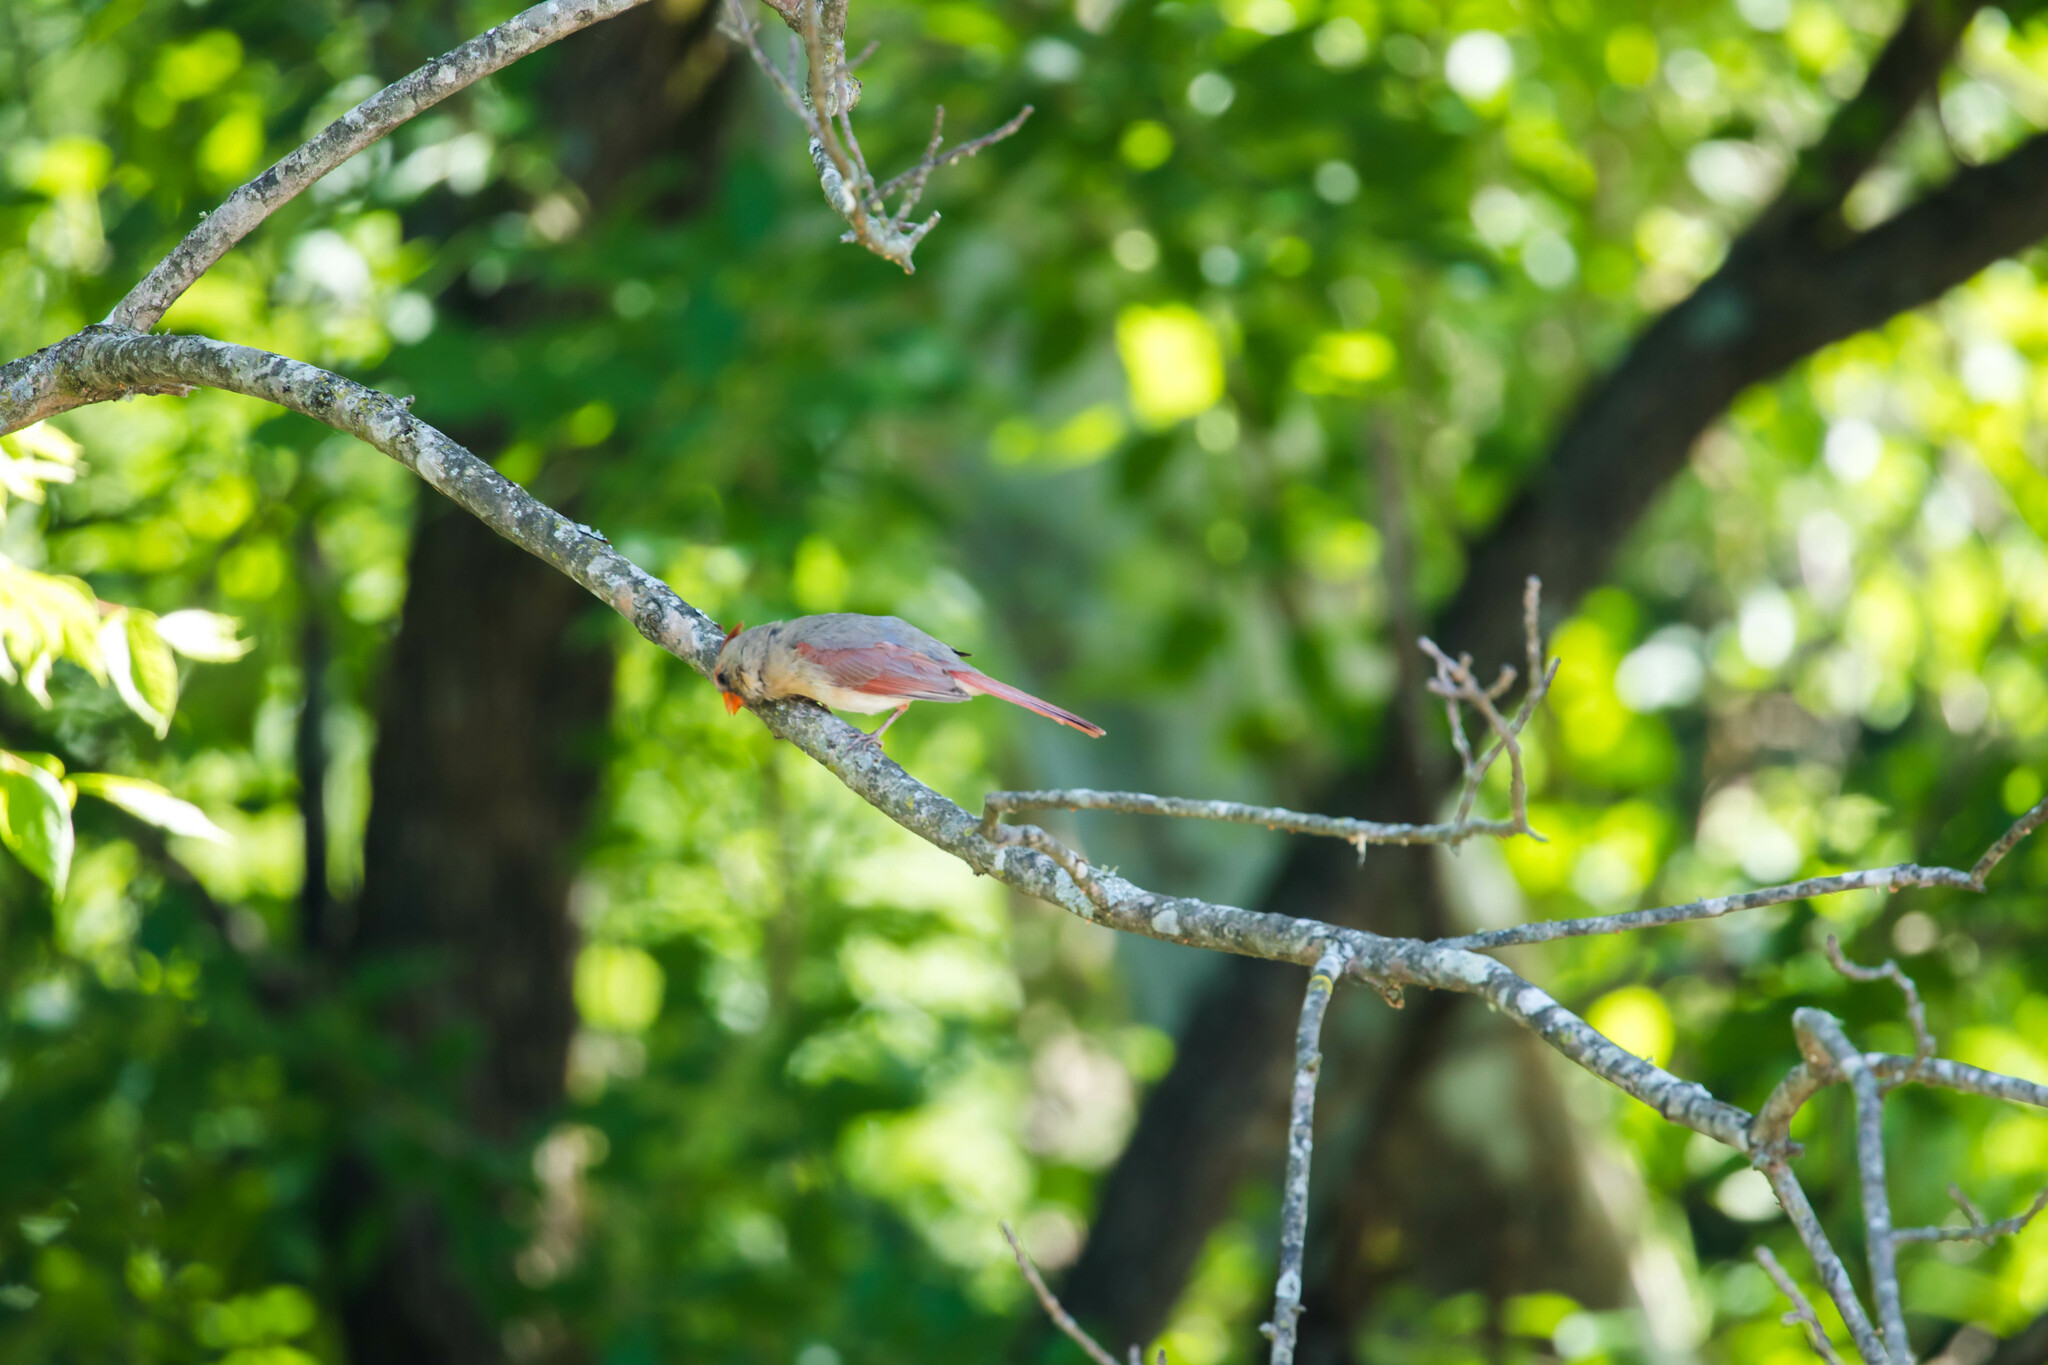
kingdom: Animalia
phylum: Chordata
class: Aves
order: Passeriformes
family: Cardinalidae
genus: Cardinalis
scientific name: Cardinalis cardinalis
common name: Northern cardinal
